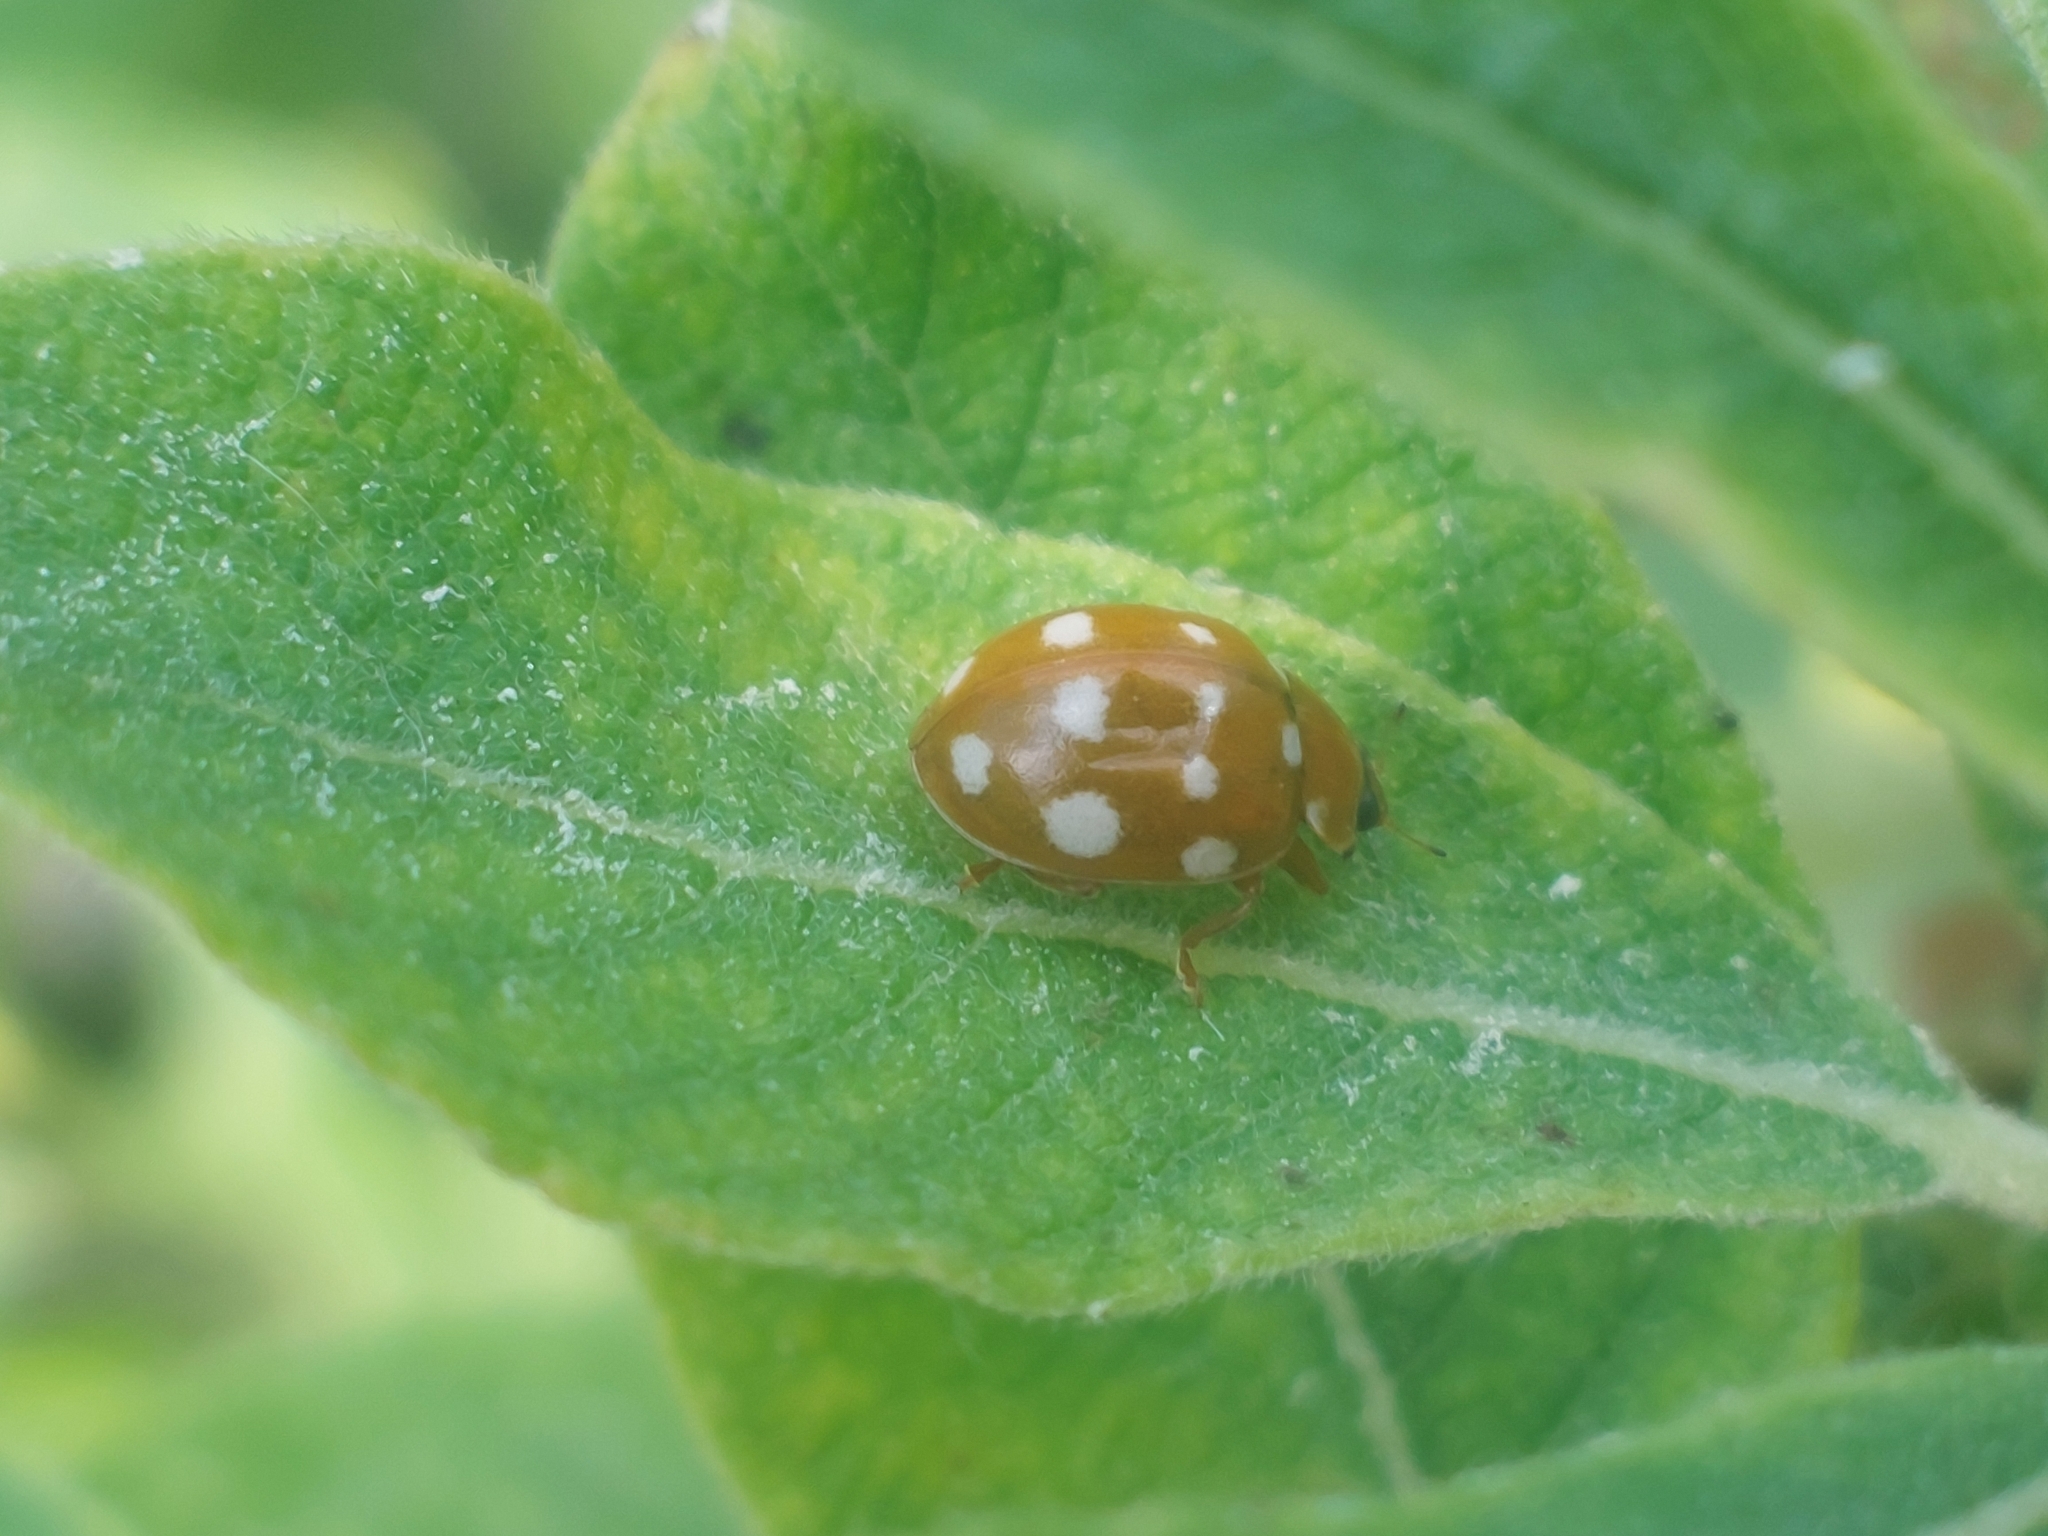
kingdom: Animalia
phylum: Arthropoda
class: Insecta
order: Coleoptera
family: Coccinellidae
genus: Calvia
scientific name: Calvia quatuordecimguttata
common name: Cream-spot ladybird
